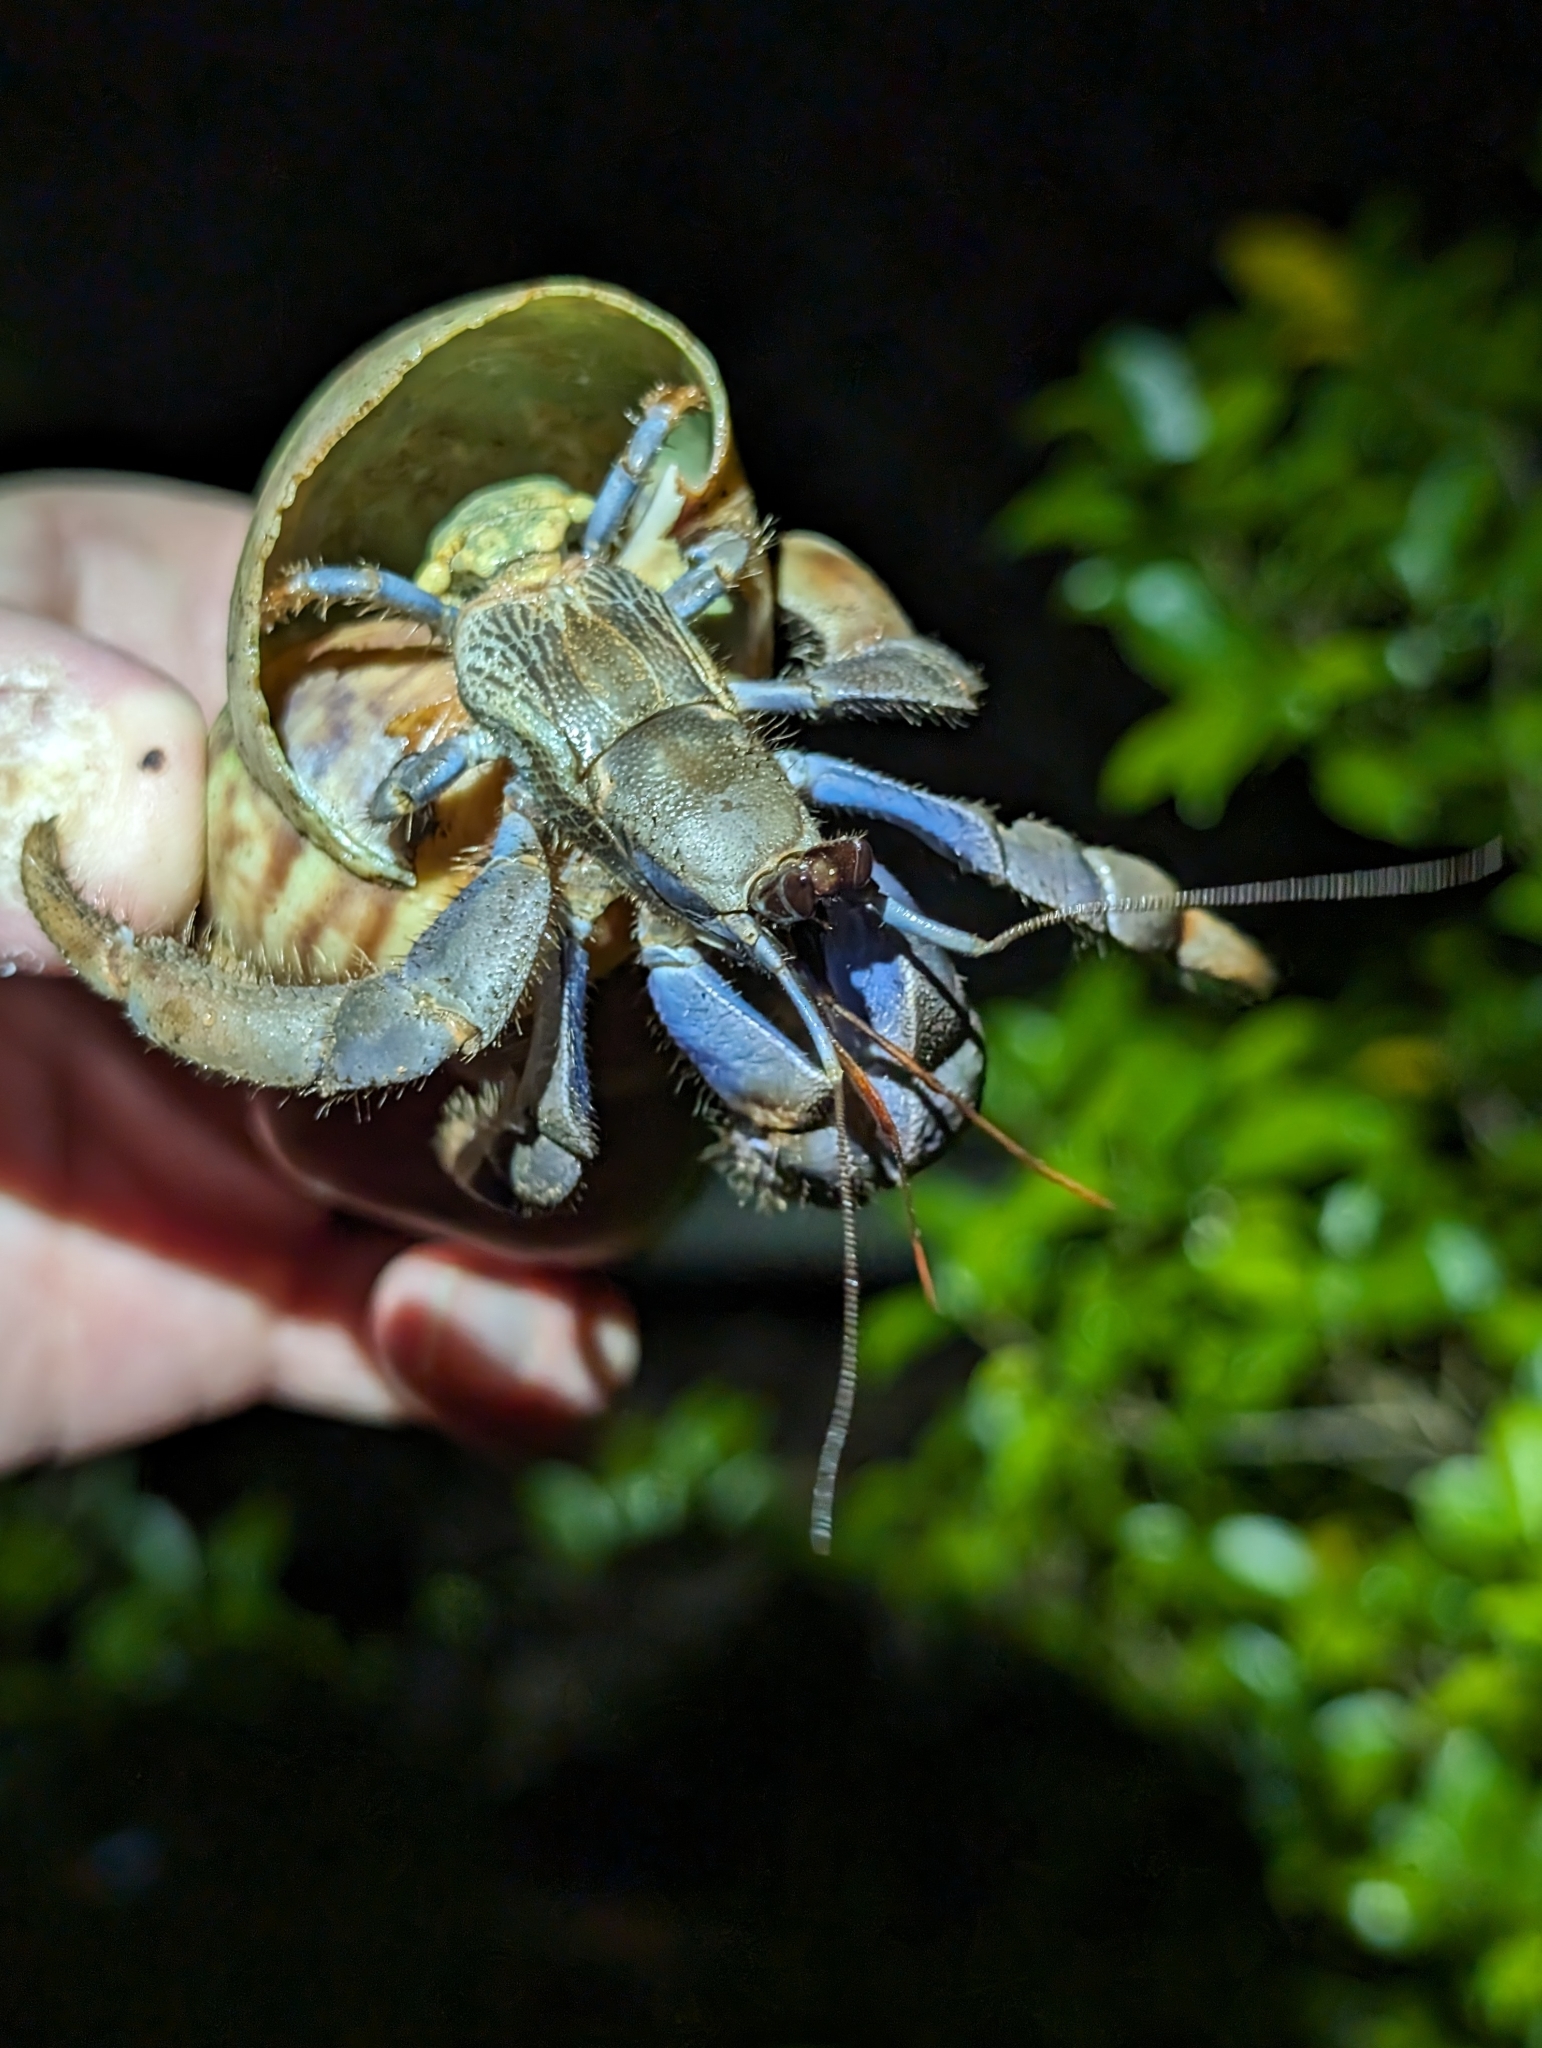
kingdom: Animalia
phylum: Arthropoda
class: Malacostraca
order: Decapoda
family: Coenobitidae
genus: Coenobita
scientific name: Coenobita violascens
